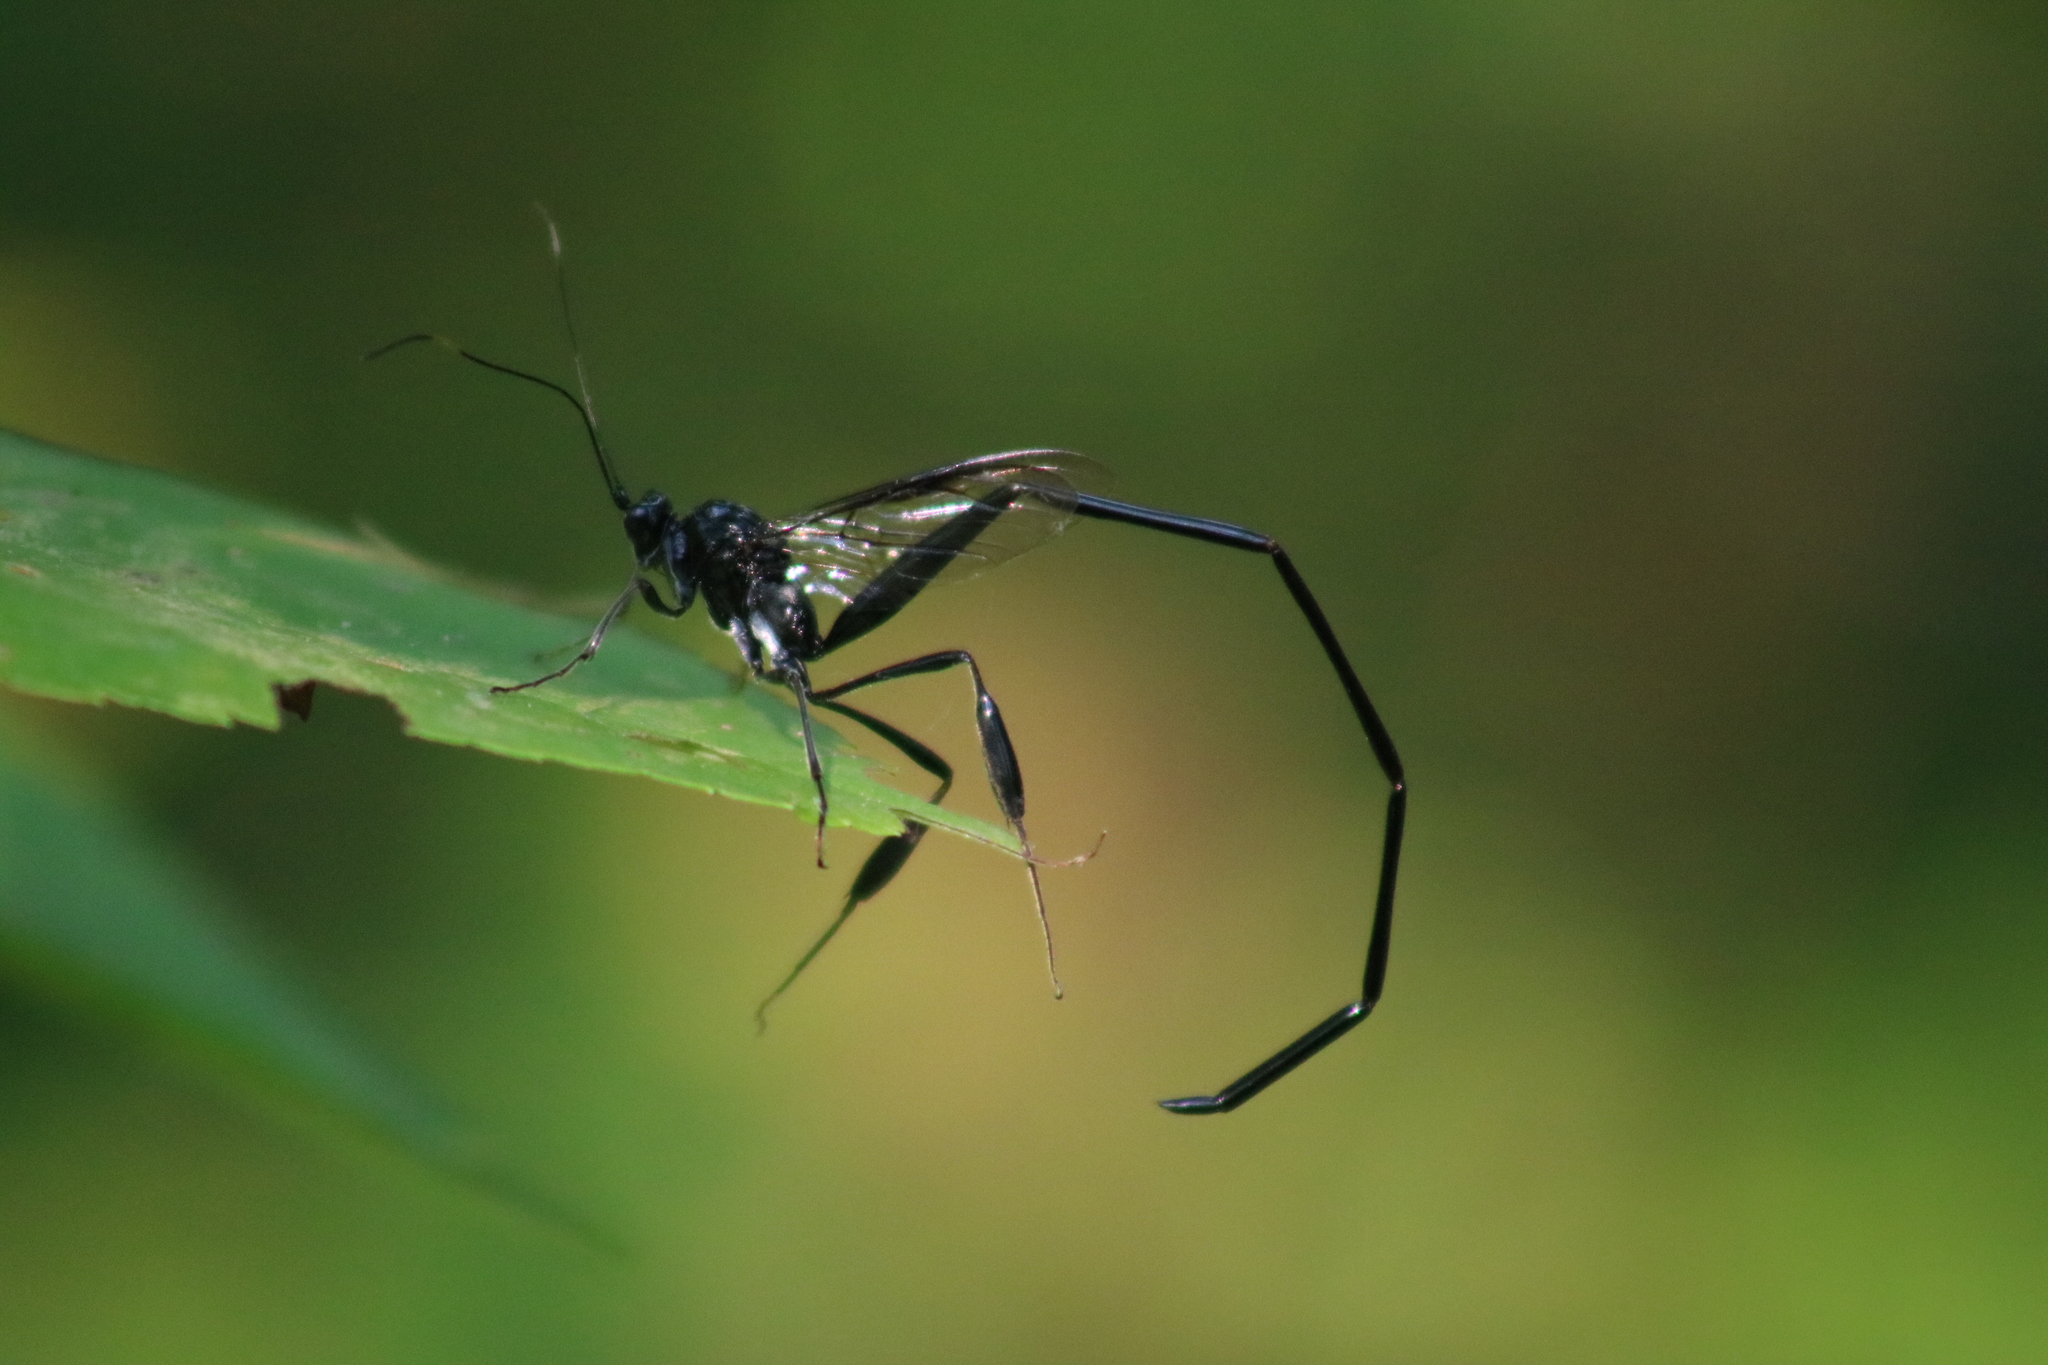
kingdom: Animalia
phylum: Arthropoda
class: Insecta
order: Hymenoptera
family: Pelecinidae
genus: Pelecinus
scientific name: Pelecinus polyturator
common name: American pelecinid wasp
